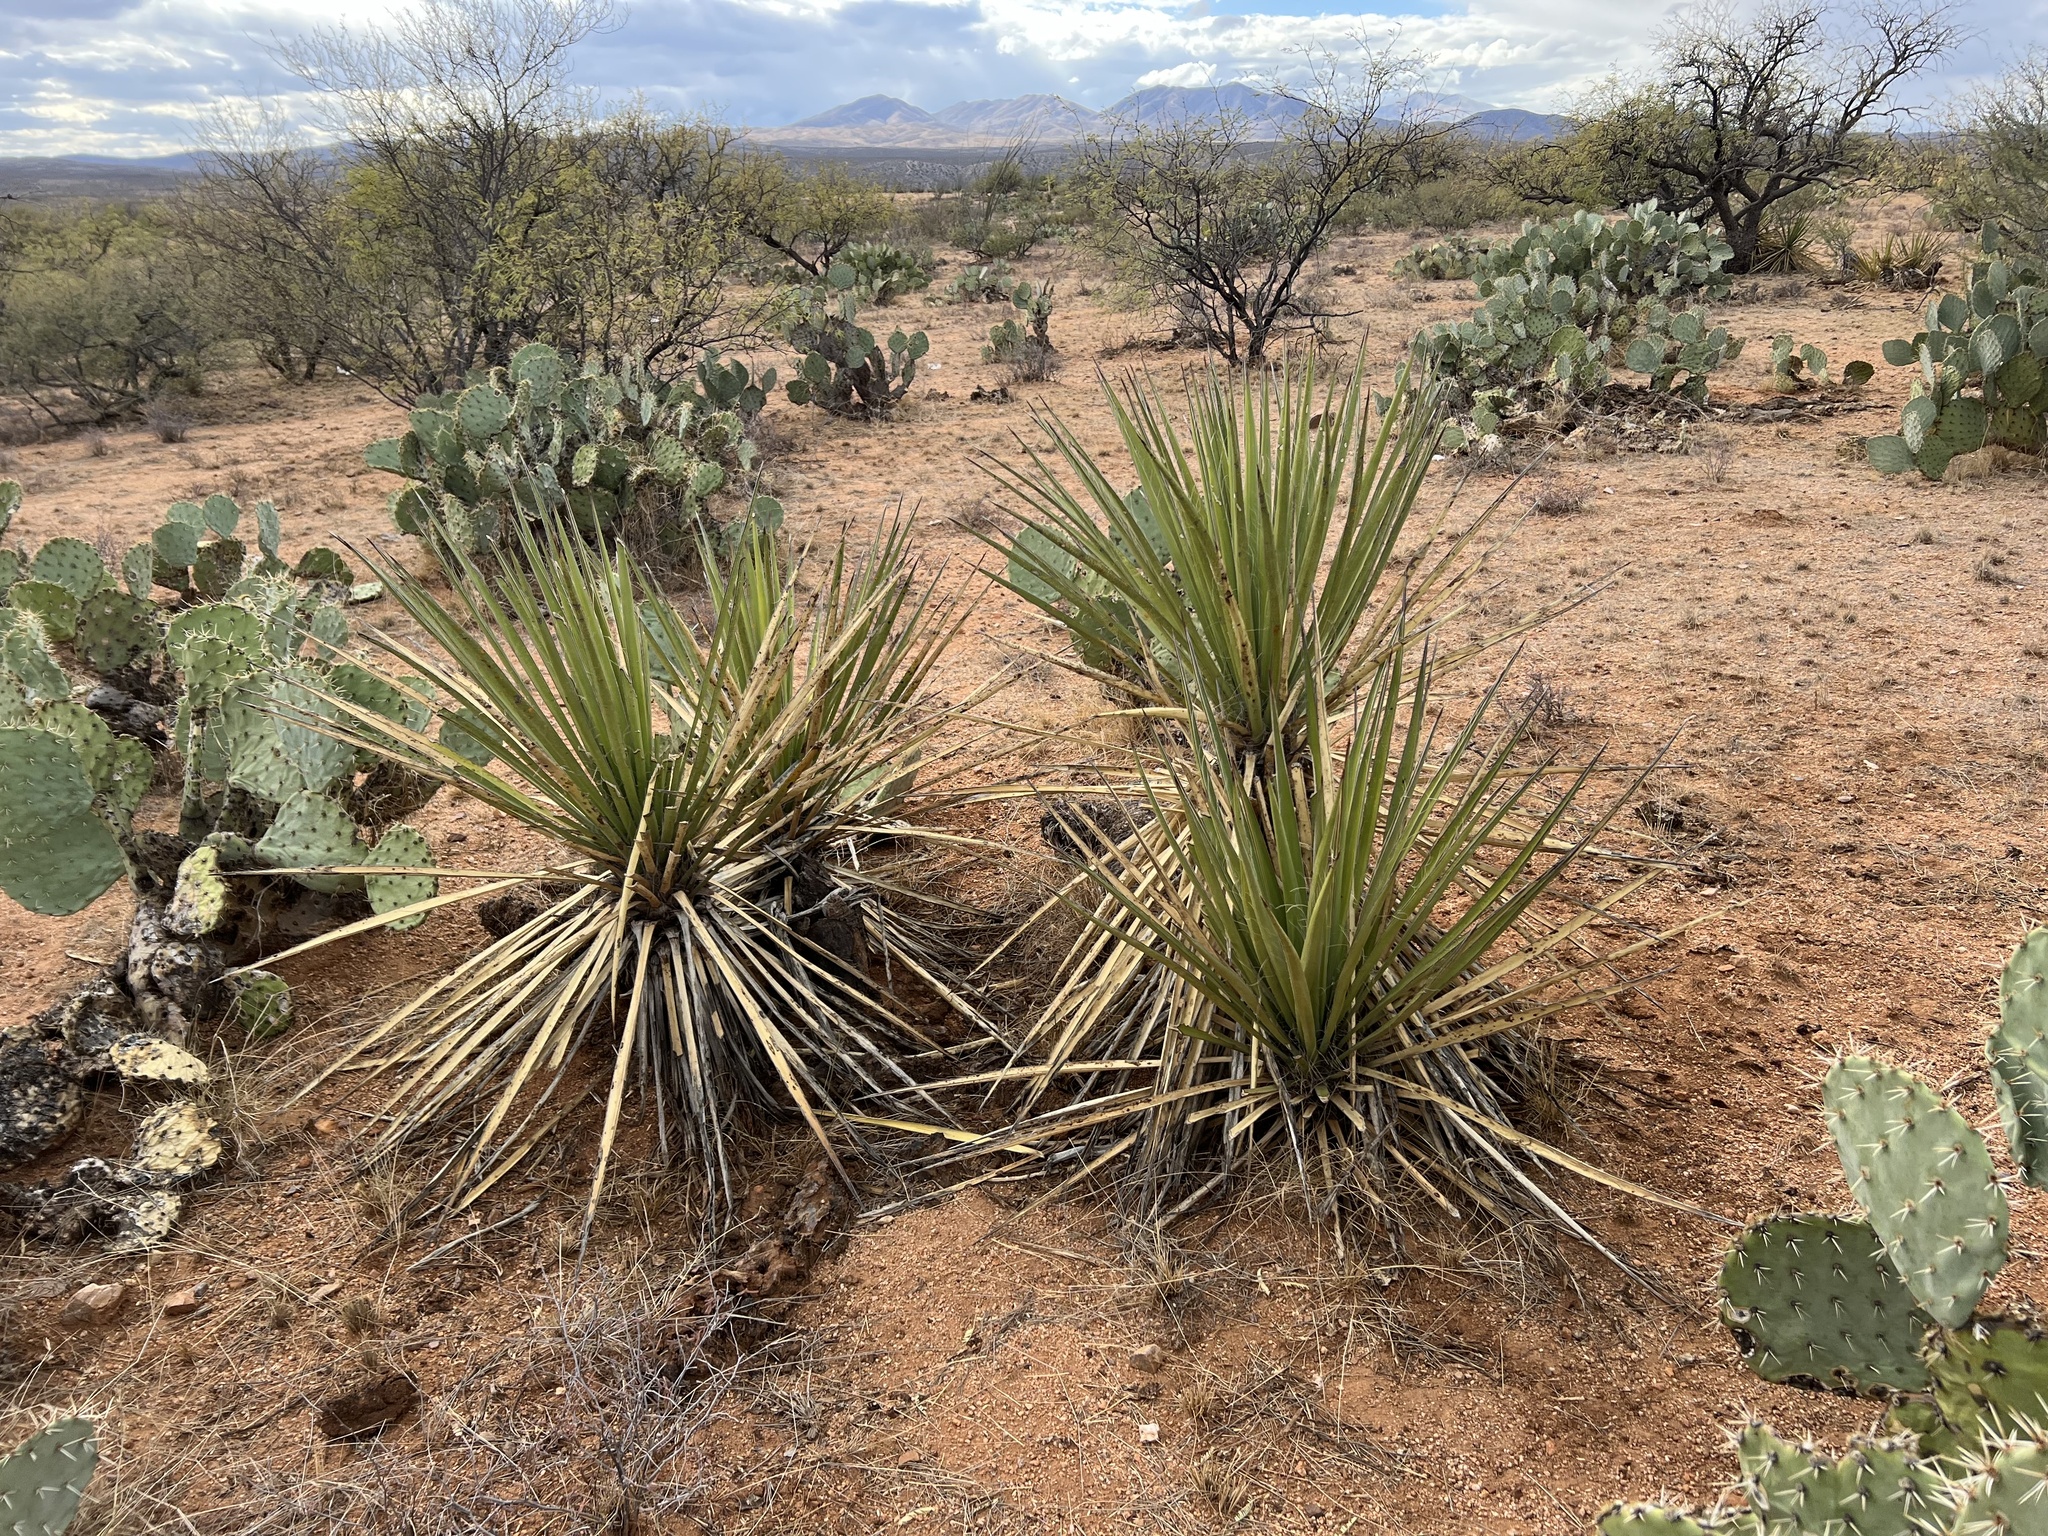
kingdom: Plantae
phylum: Tracheophyta
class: Liliopsida
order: Asparagales
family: Asparagaceae
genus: Yucca
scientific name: Yucca baccata
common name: Banana yucca
